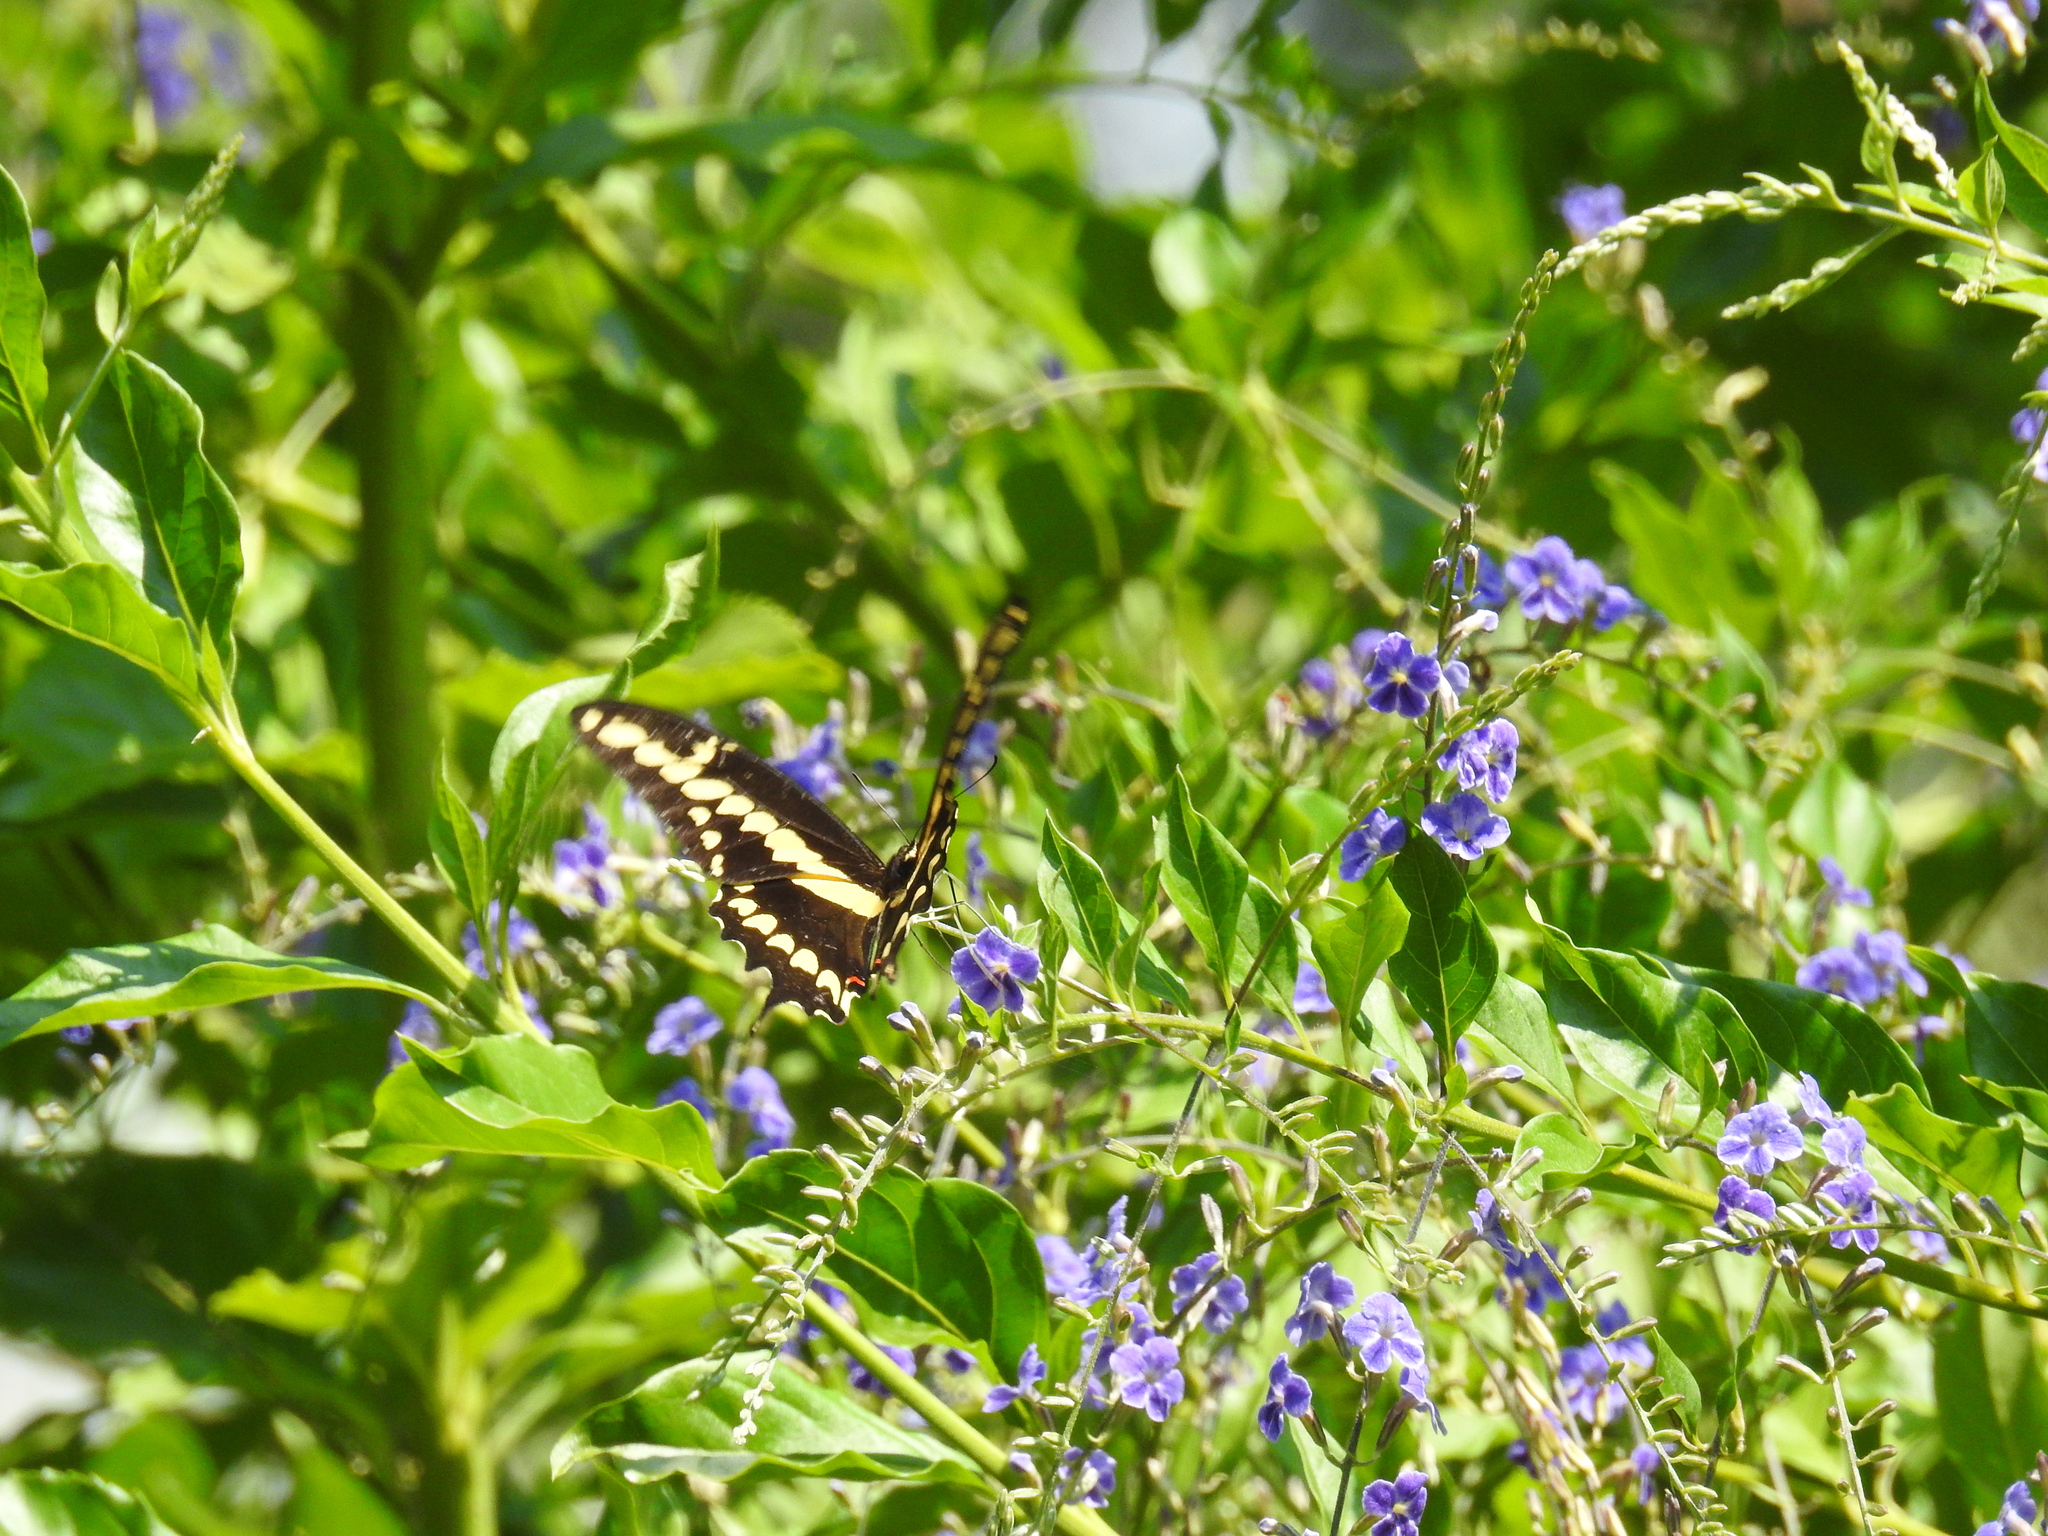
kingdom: Animalia
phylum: Arthropoda
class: Insecta
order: Lepidoptera
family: Papilionidae
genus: Papilio
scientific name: Papilio rumiko
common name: Western giant swallowtail
